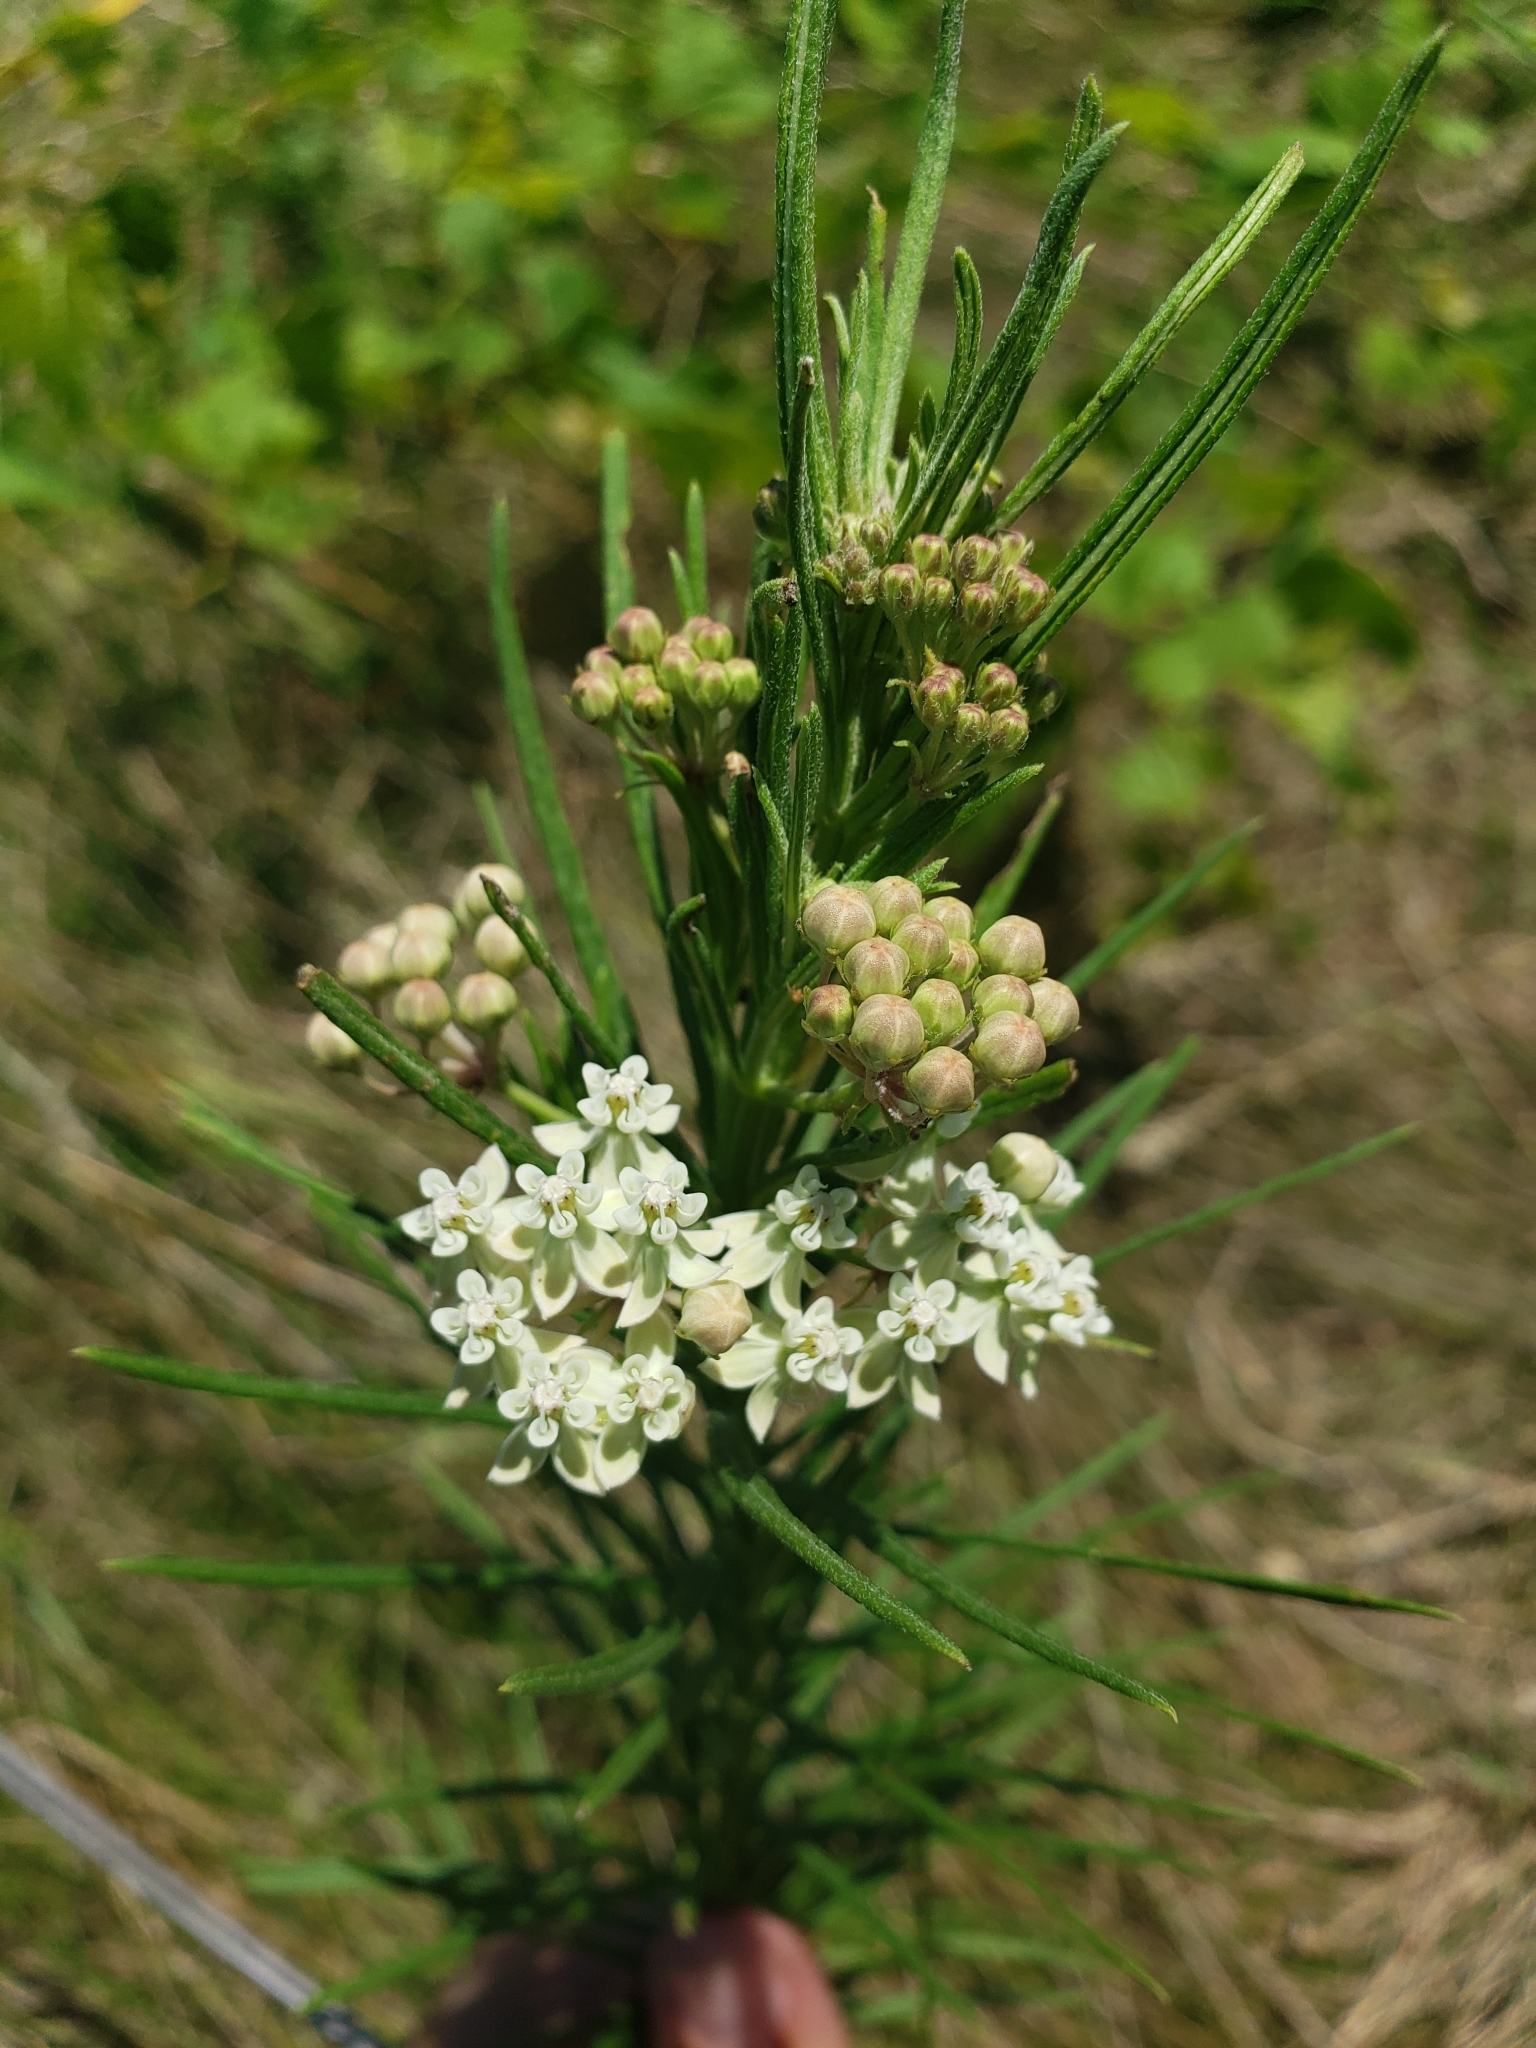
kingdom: Plantae
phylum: Tracheophyta
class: Magnoliopsida
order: Gentianales
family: Apocynaceae
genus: Asclepias
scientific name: Asclepias verticillata
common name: Eastern whorled milkweed
